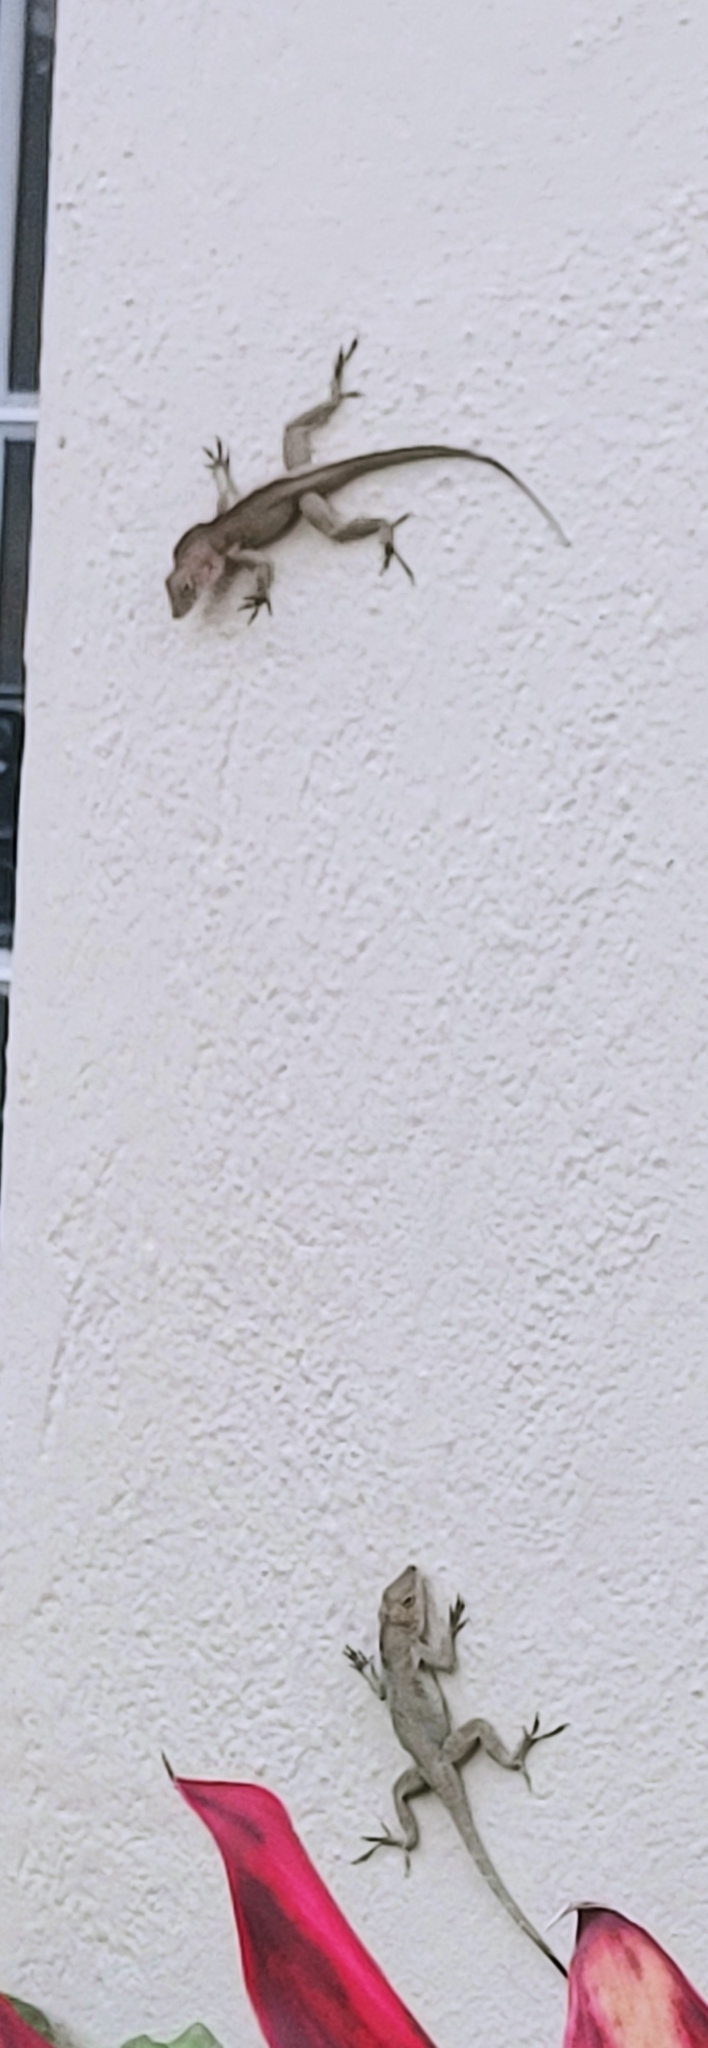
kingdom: Animalia
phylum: Chordata
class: Squamata
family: Dactyloidae
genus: Anolis
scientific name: Anolis cristatellus
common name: Crested anole
